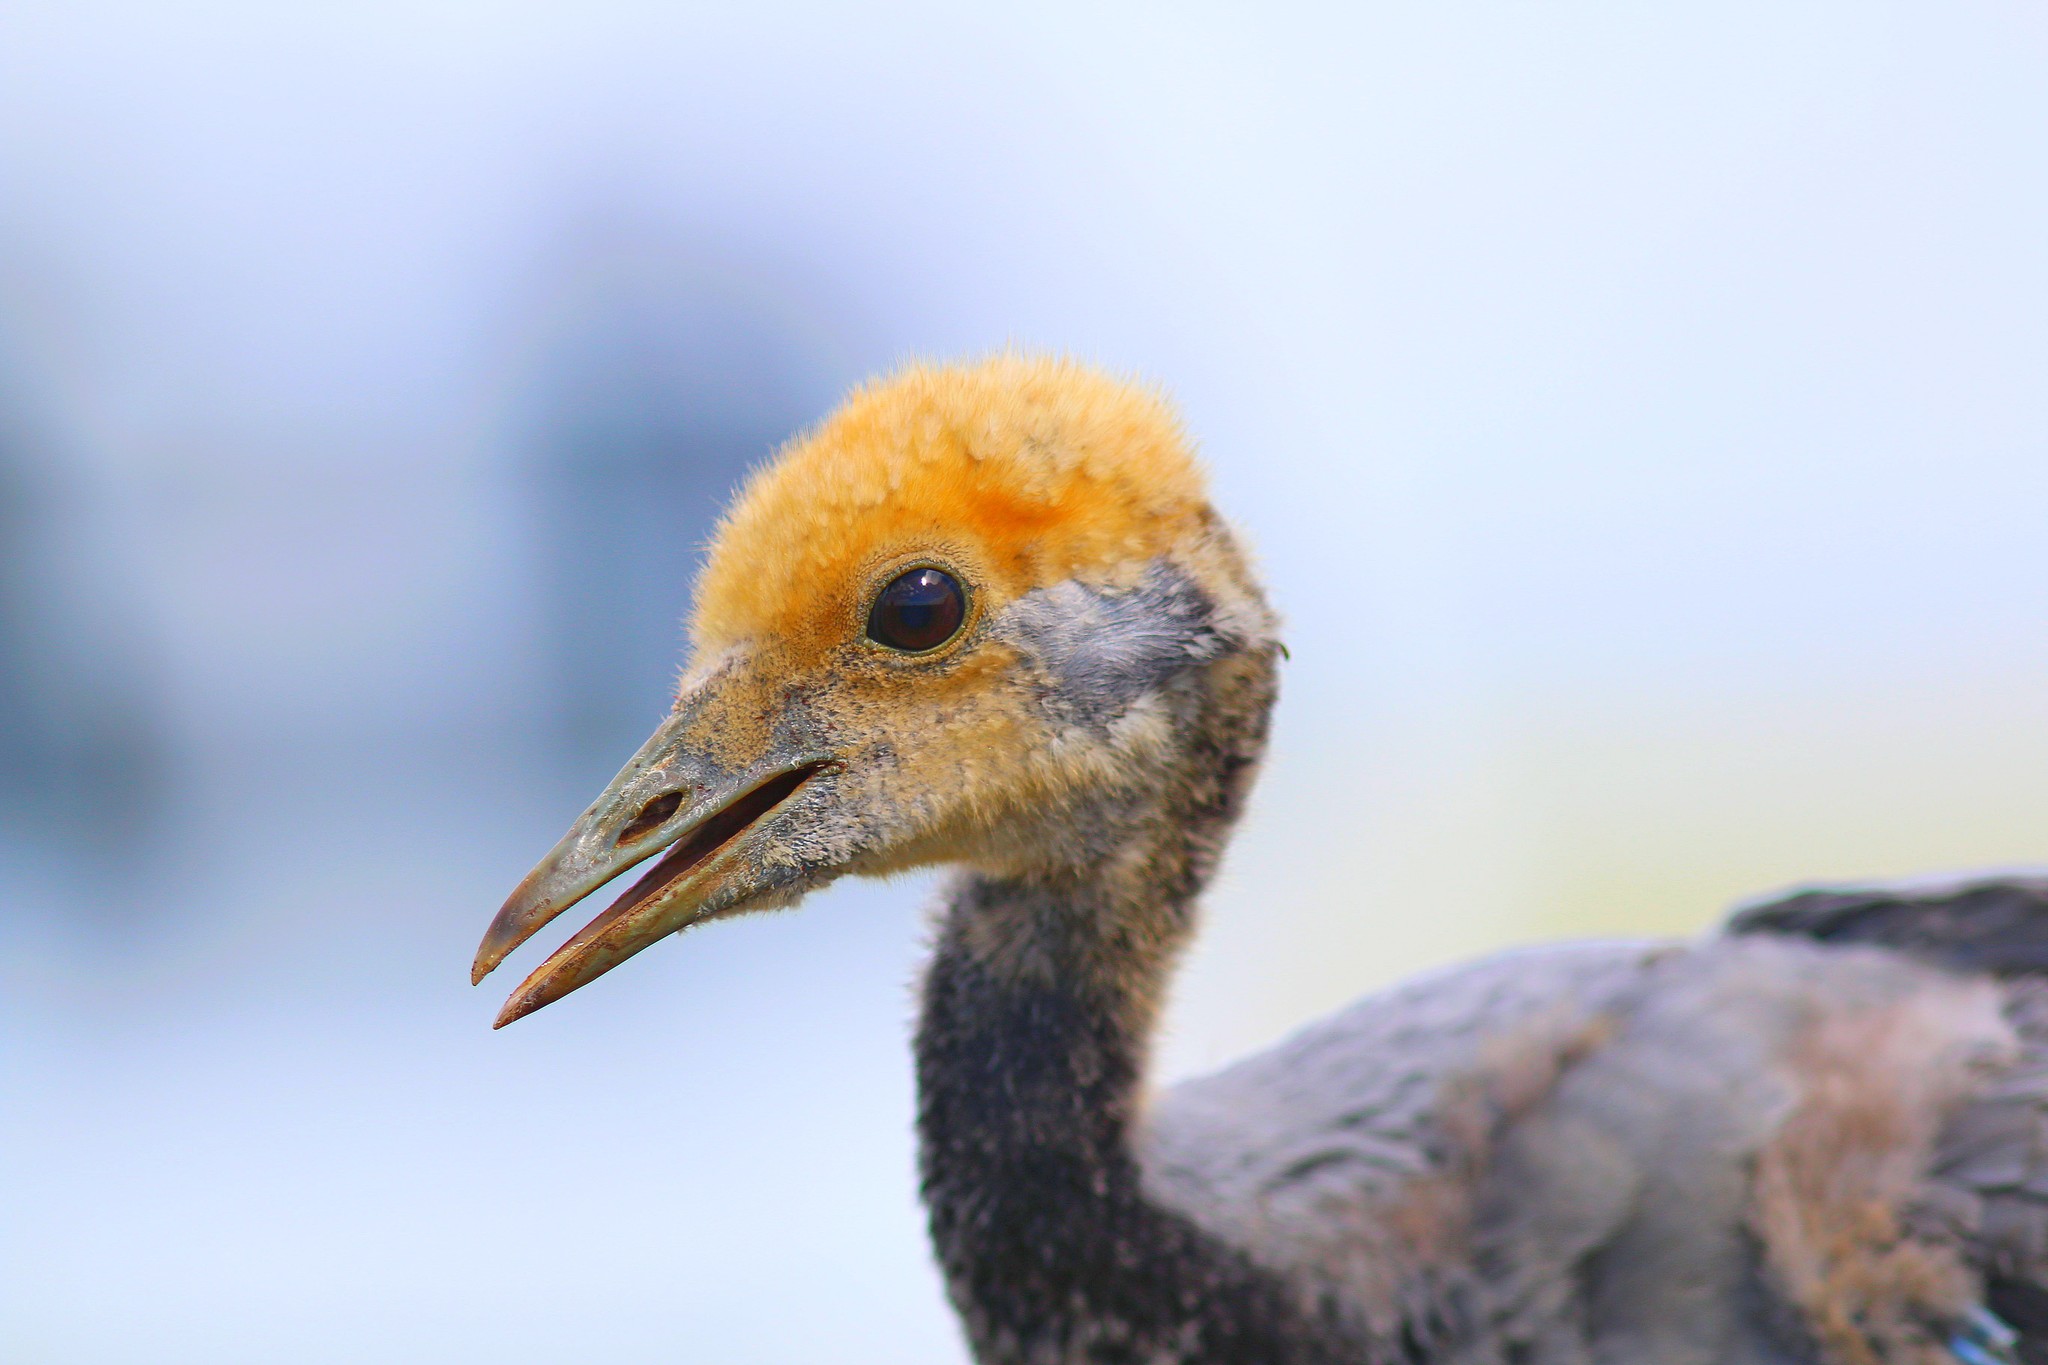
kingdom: Animalia
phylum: Chordata
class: Aves
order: Gruiformes
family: Gruidae
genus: Anthropoides
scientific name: Anthropoides virgo
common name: Demoiselle crane
